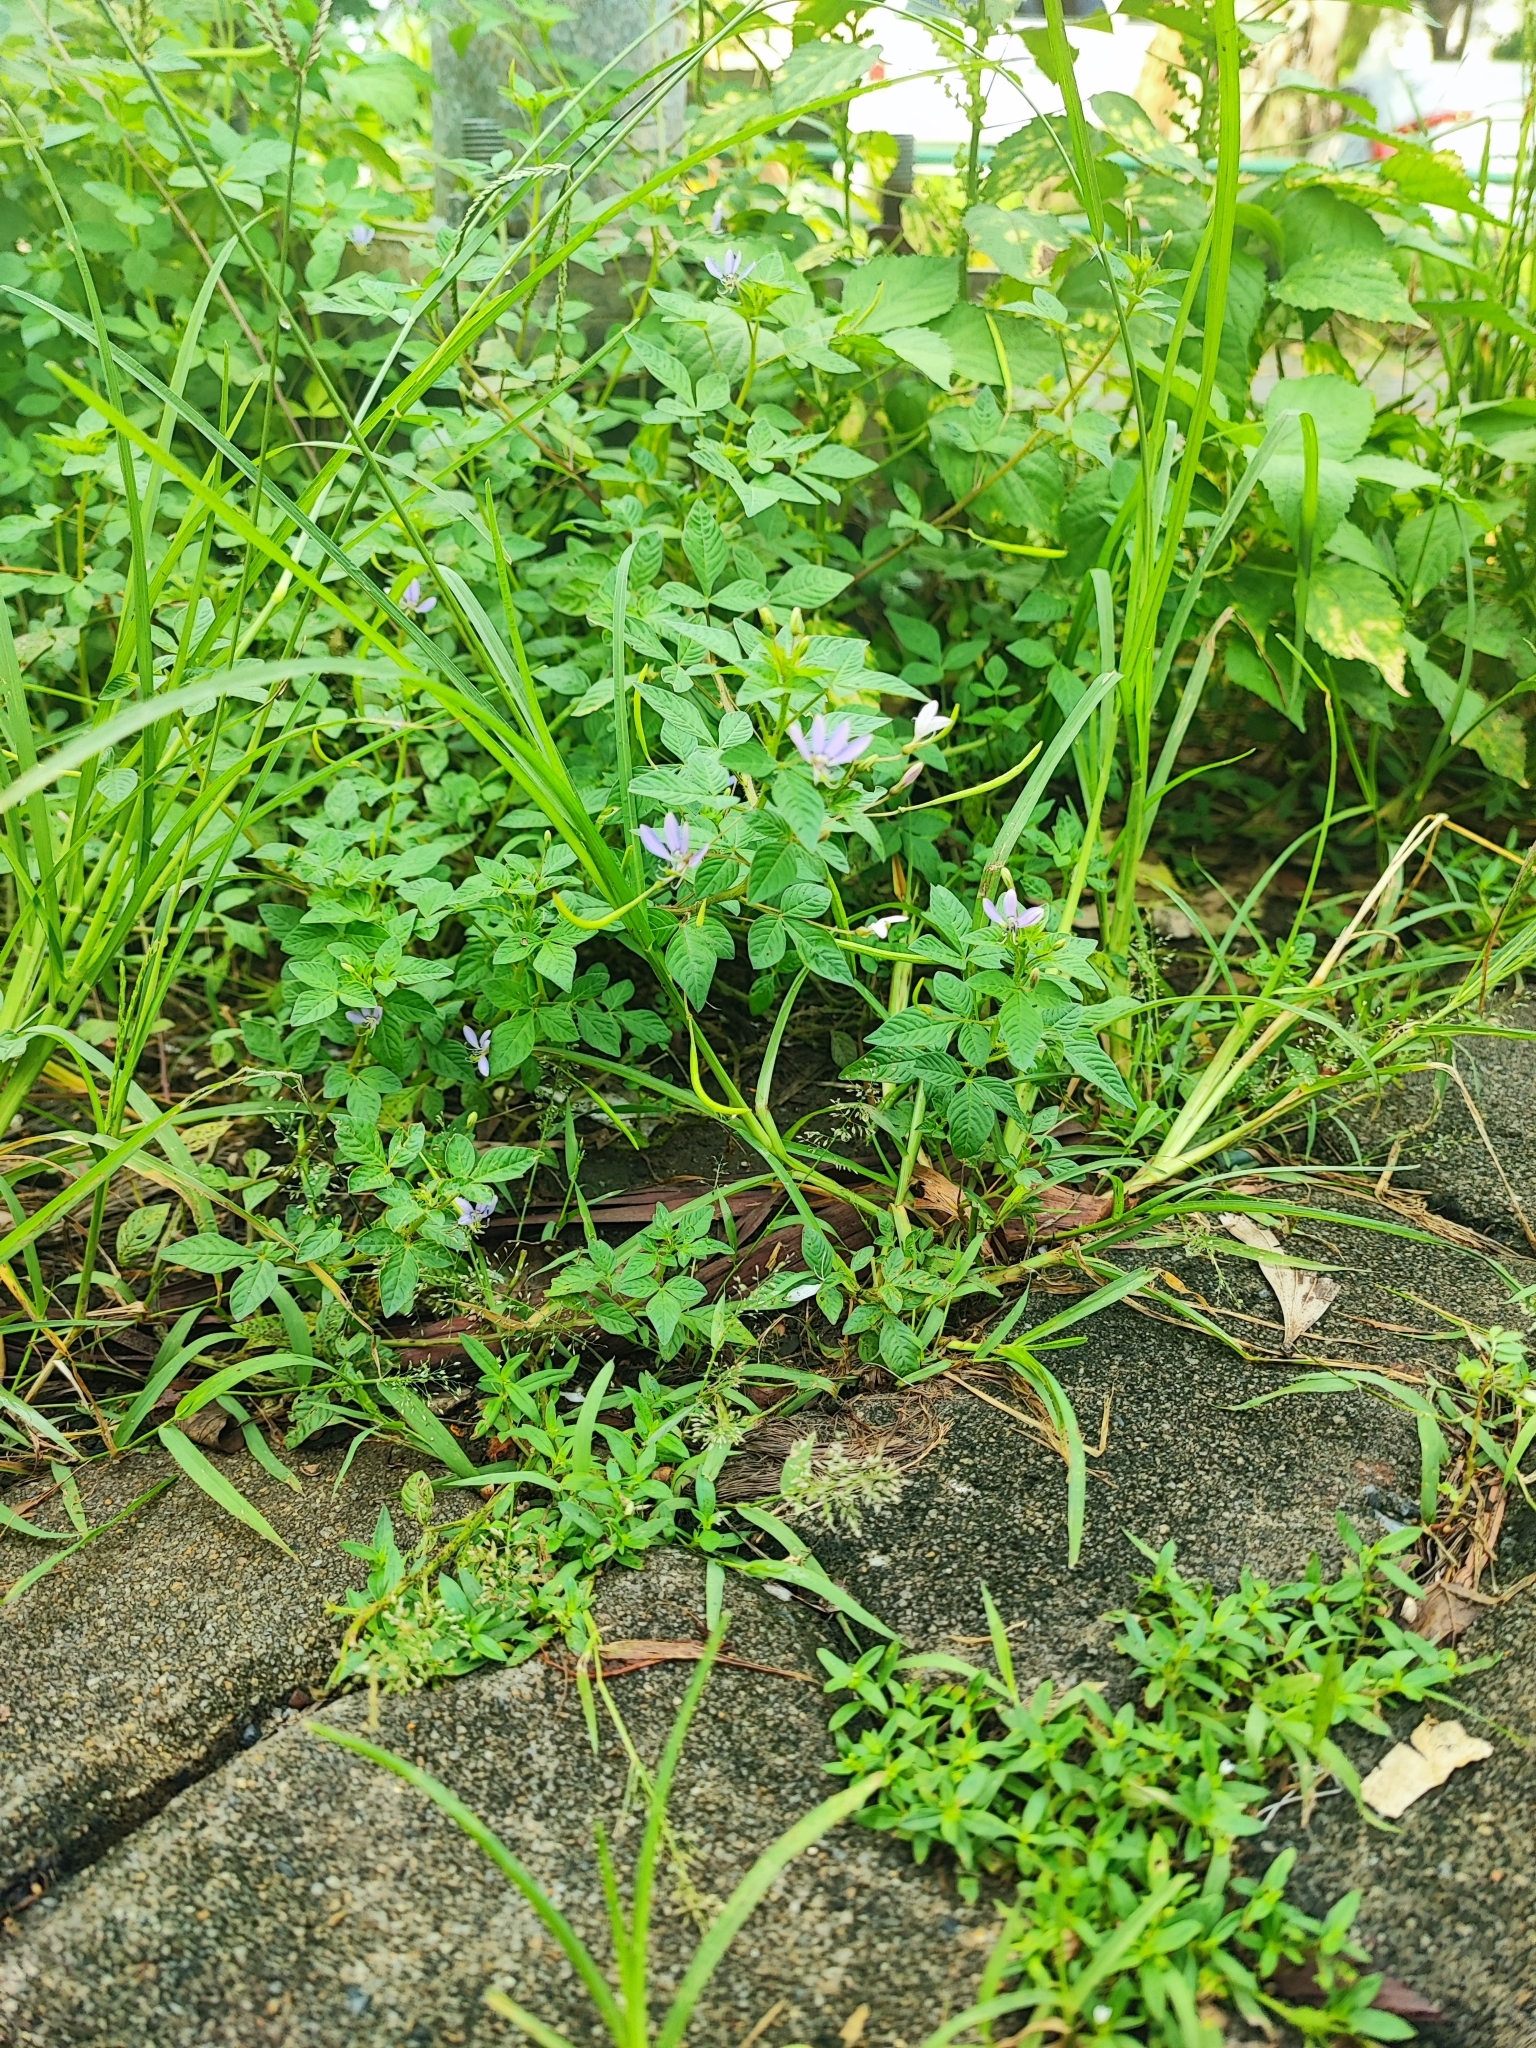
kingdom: Plantae
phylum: Tracheophyta
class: Magnoliopsida
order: Brassicales
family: Cleomaceae
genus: Sieruela
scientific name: Sieruela rutidosperma
